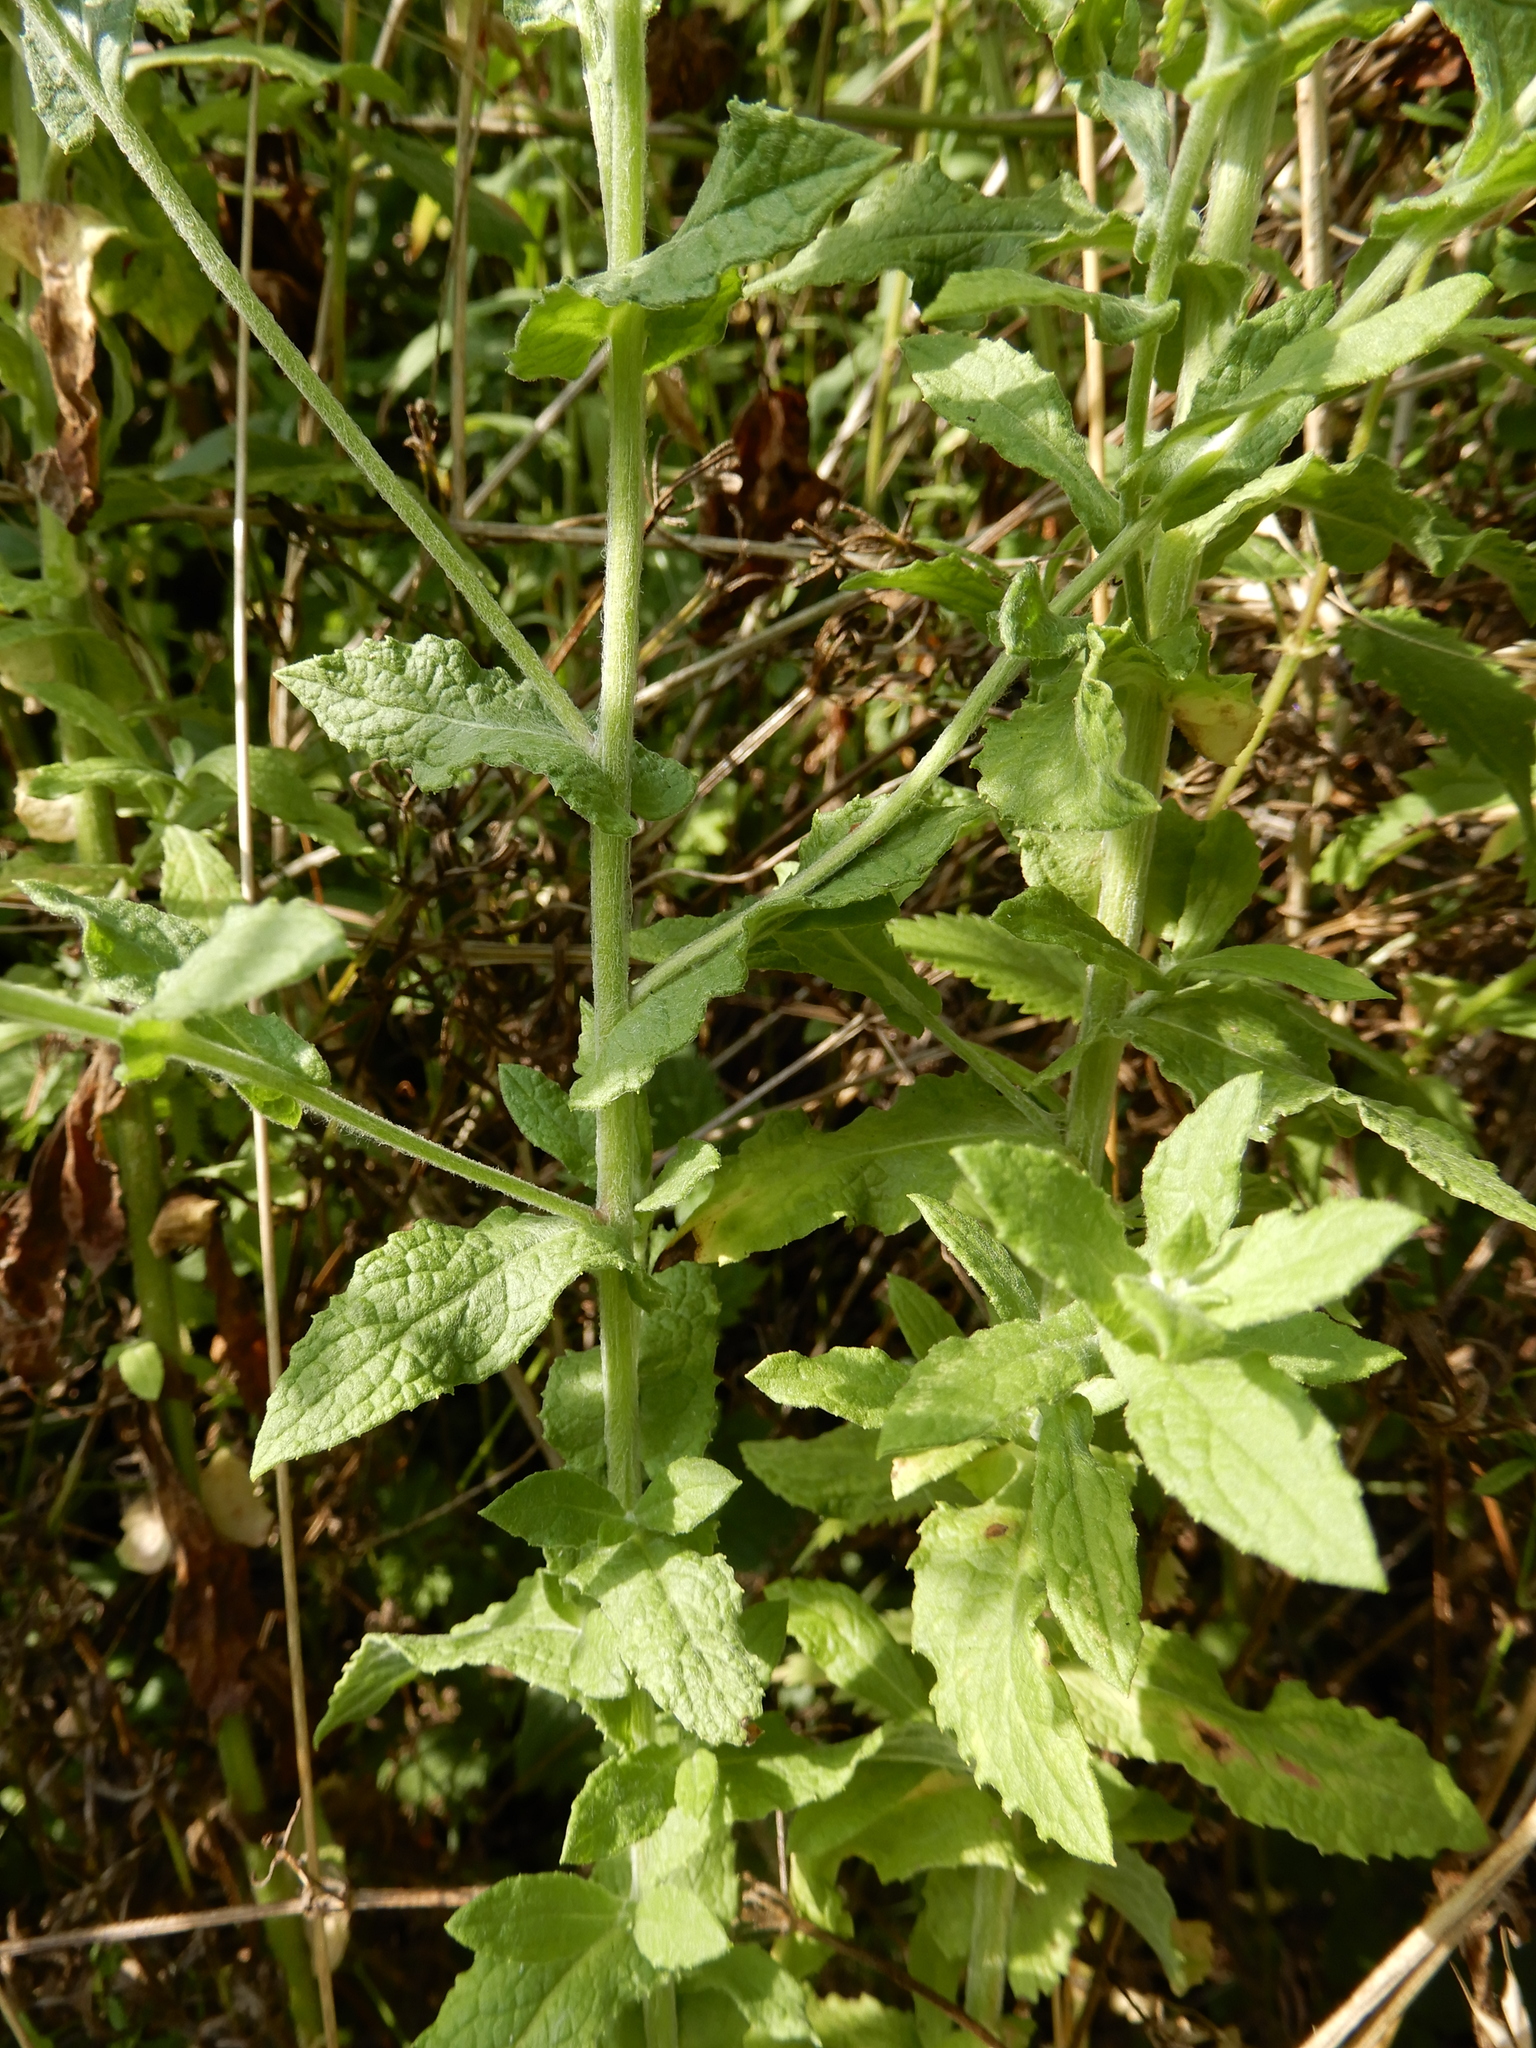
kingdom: Plantae
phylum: Tracheophyta
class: Magnoliopsida
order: Asterales
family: Asteraceae
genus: Pulicaria
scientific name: Pulicaria dysenterica
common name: Common fleabane
